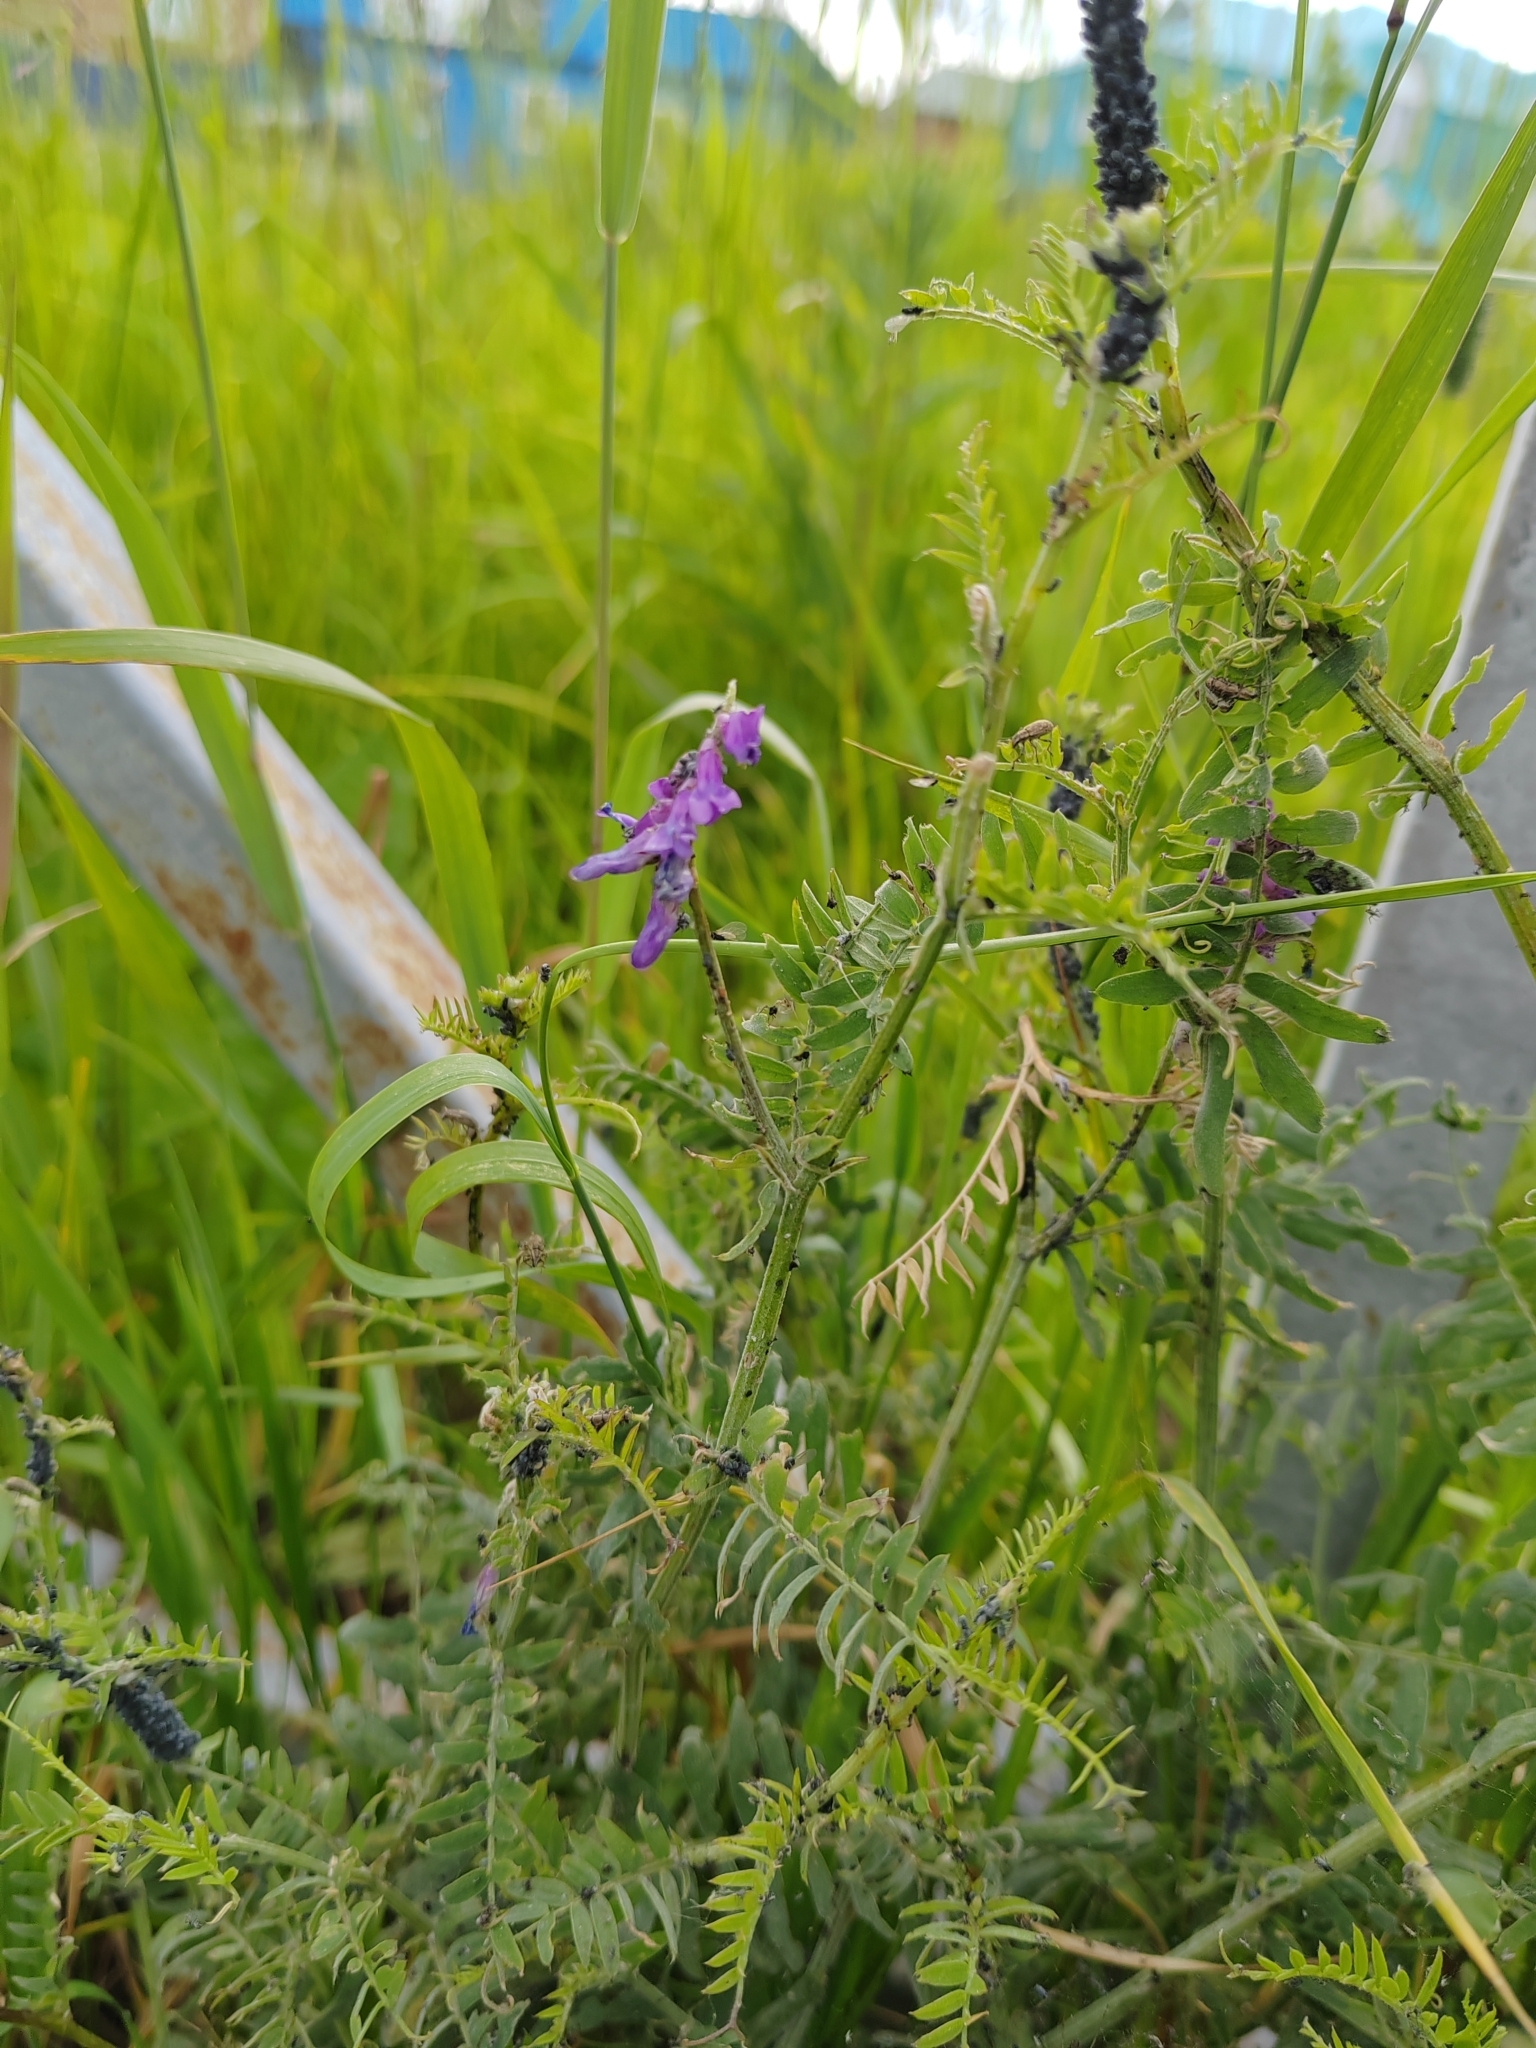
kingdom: Plantae
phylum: Tracheophyta
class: Magnoliopsida
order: Fabales
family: Fabaceae
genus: Vicia
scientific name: Vicia cracca
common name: Bird vetch
